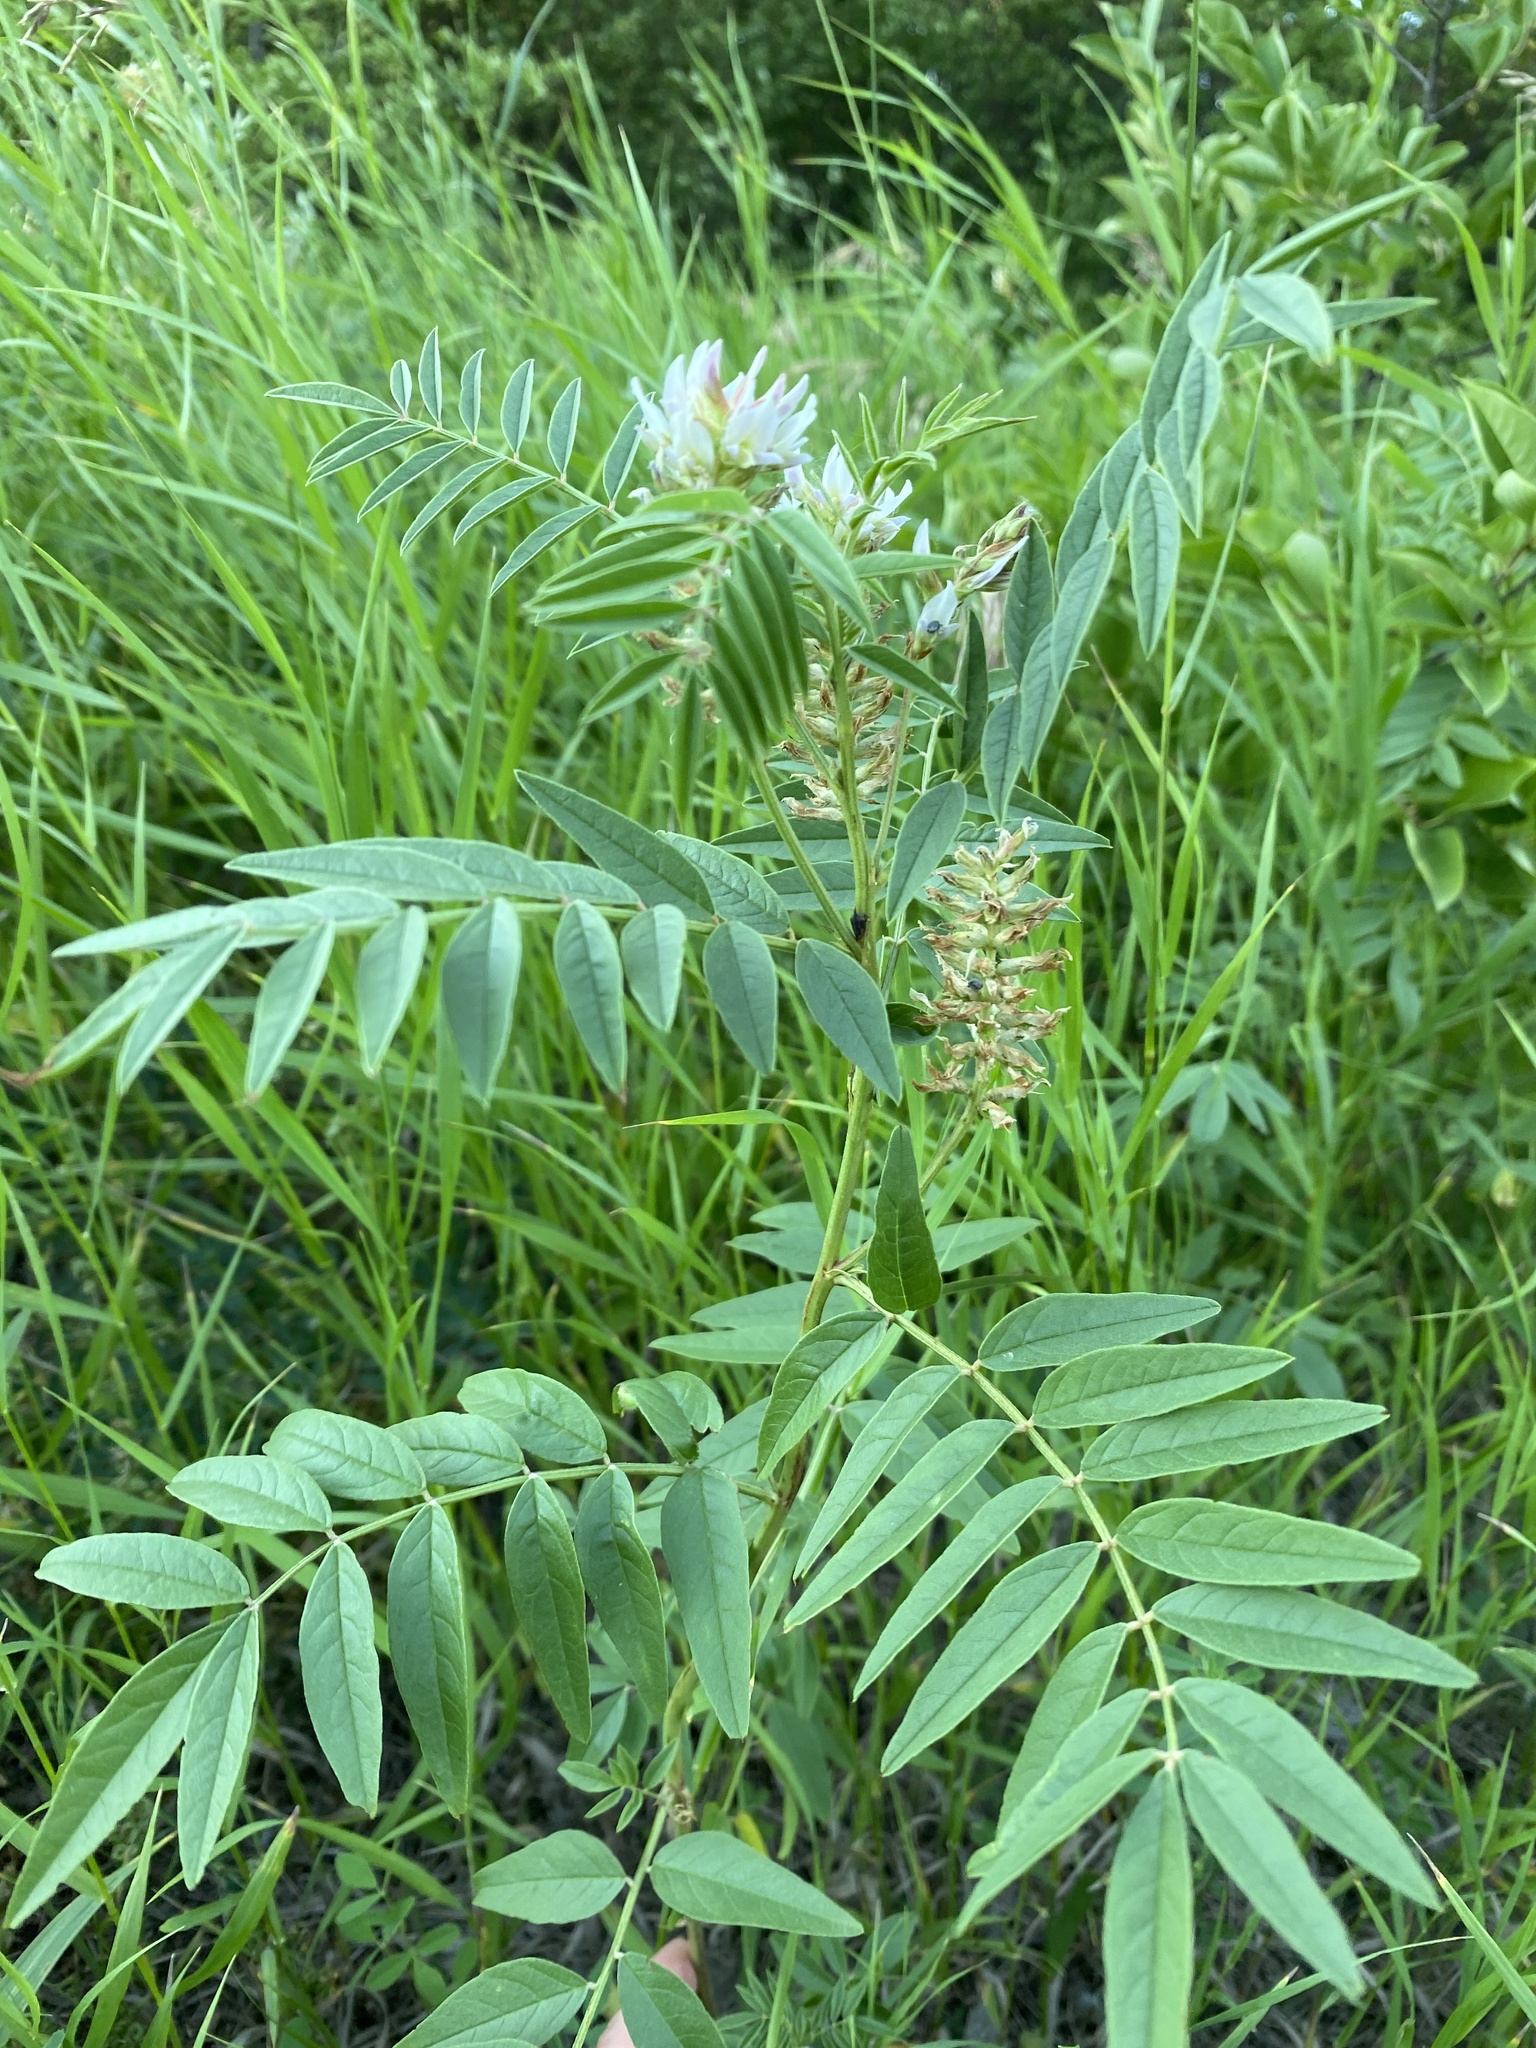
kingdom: Plantae
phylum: Tracheophyta
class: Magnoliopsida
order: Fabales
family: Fabaceae
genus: Glycyrrhiza
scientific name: Glycyrrhiza lepidota
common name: American liquorice
